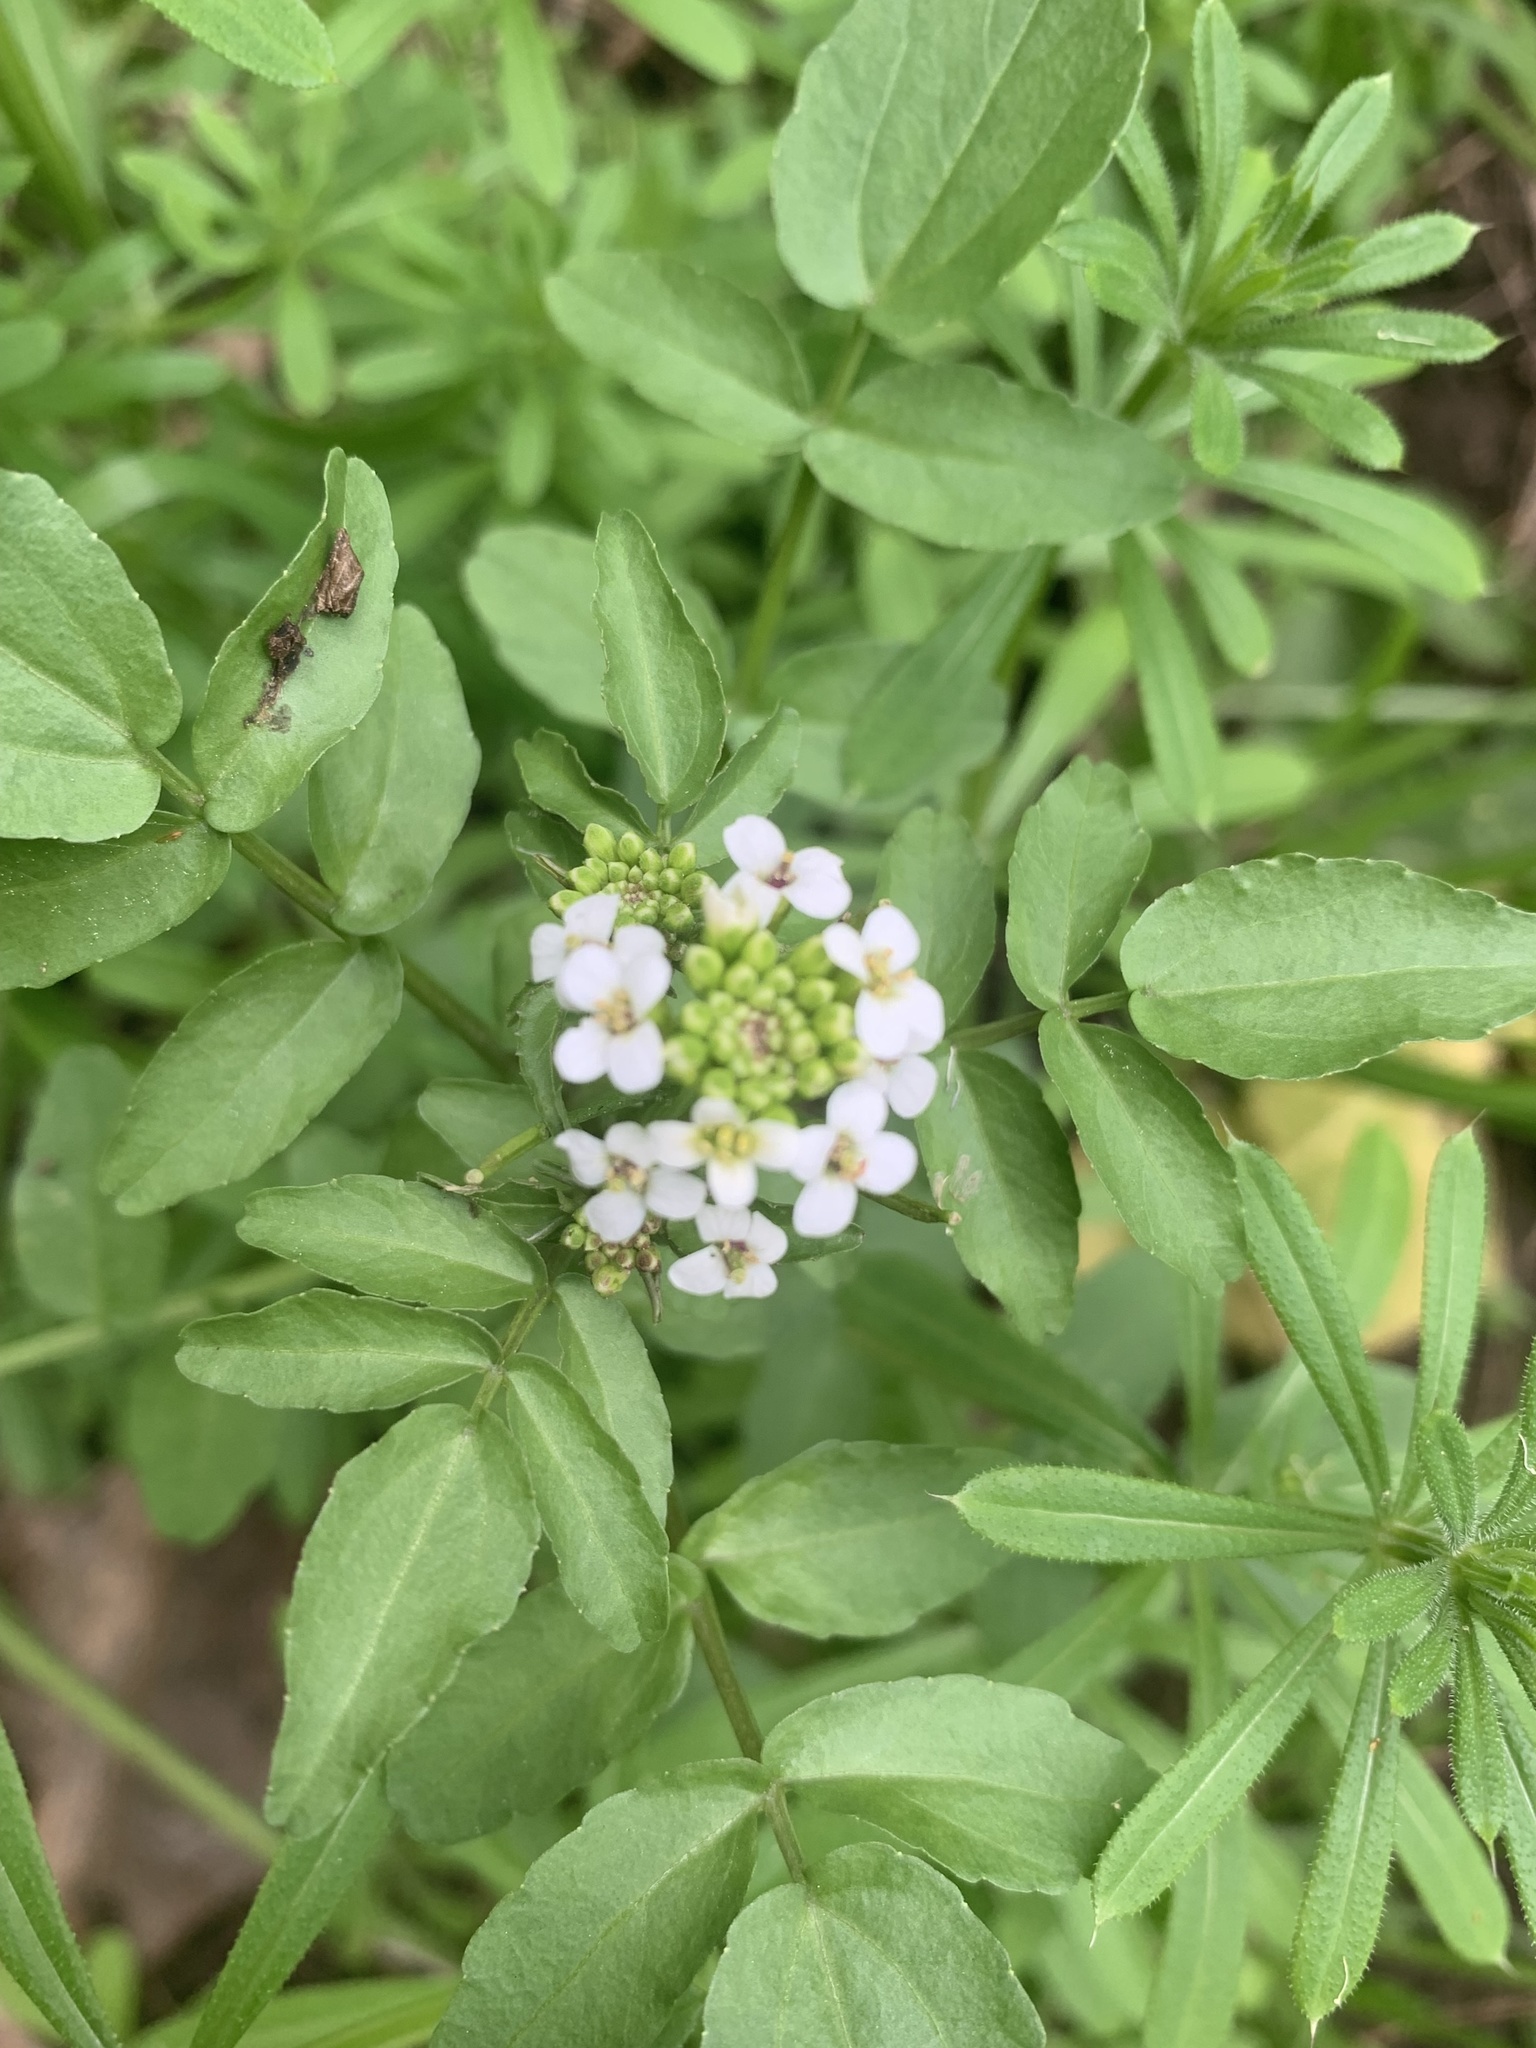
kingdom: Plantae
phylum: Tracheophyta
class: Magnoliopsida
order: Brassicales
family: Brassicaceae
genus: Nasturtium
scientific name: Nasturtium officinale
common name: Watercress
